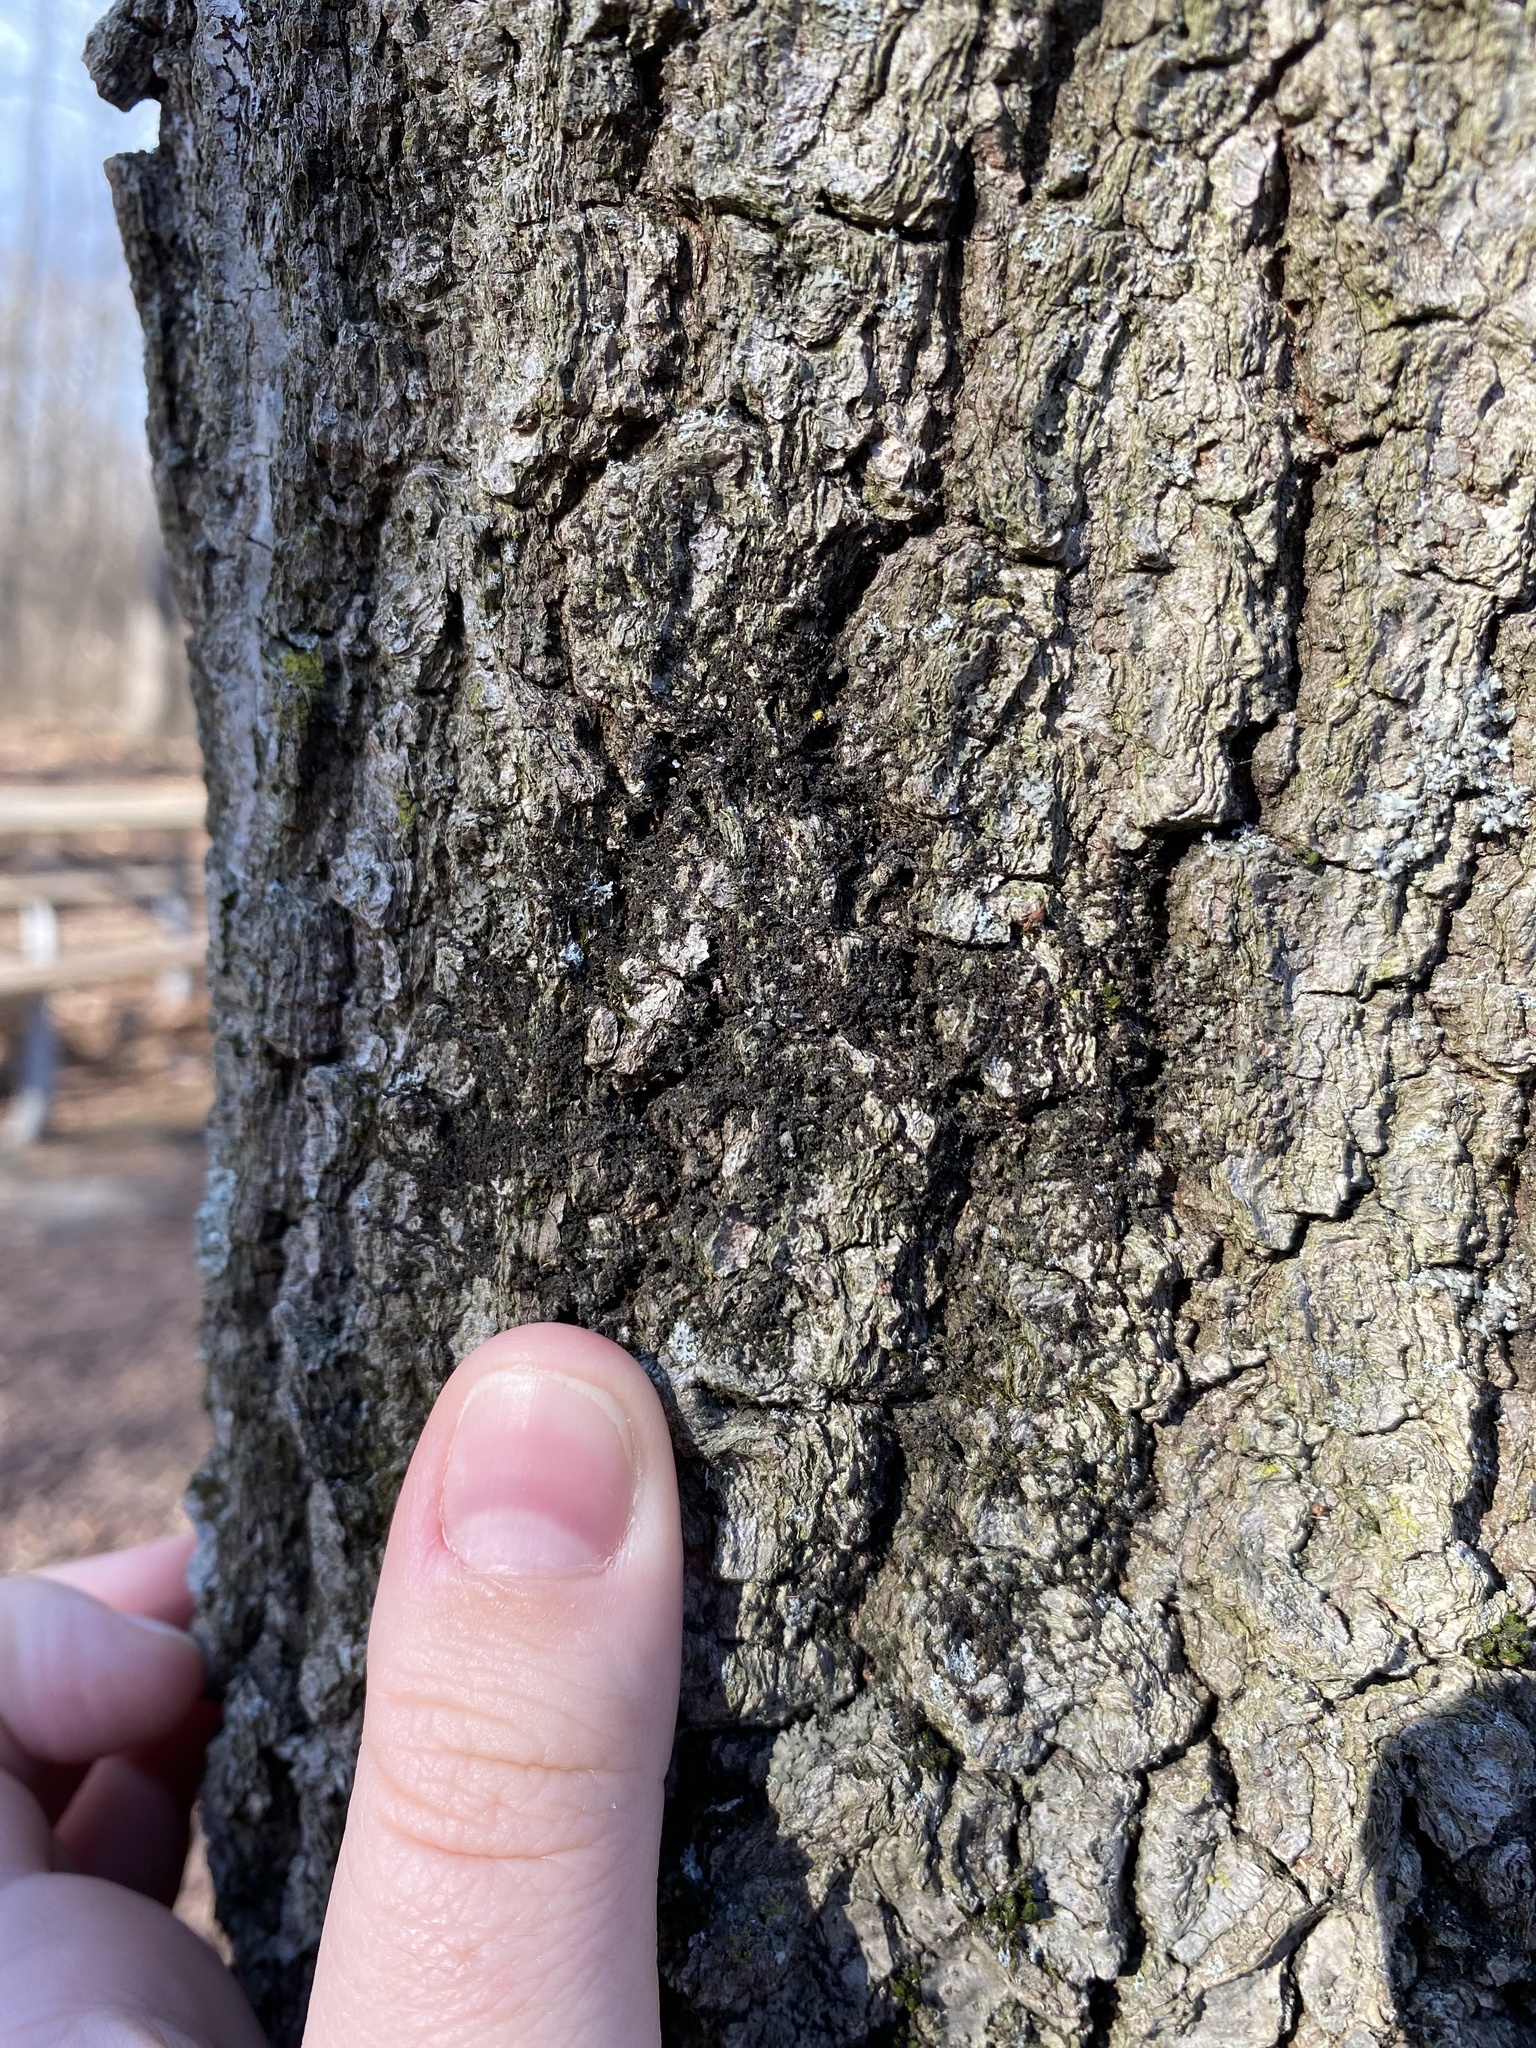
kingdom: Plantae
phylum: Marchantiophyta
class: Jungermanniopsida
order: Porellales
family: Frullaniaceae
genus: Frullania
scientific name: Frullania eboracensis
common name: New york scalewort
